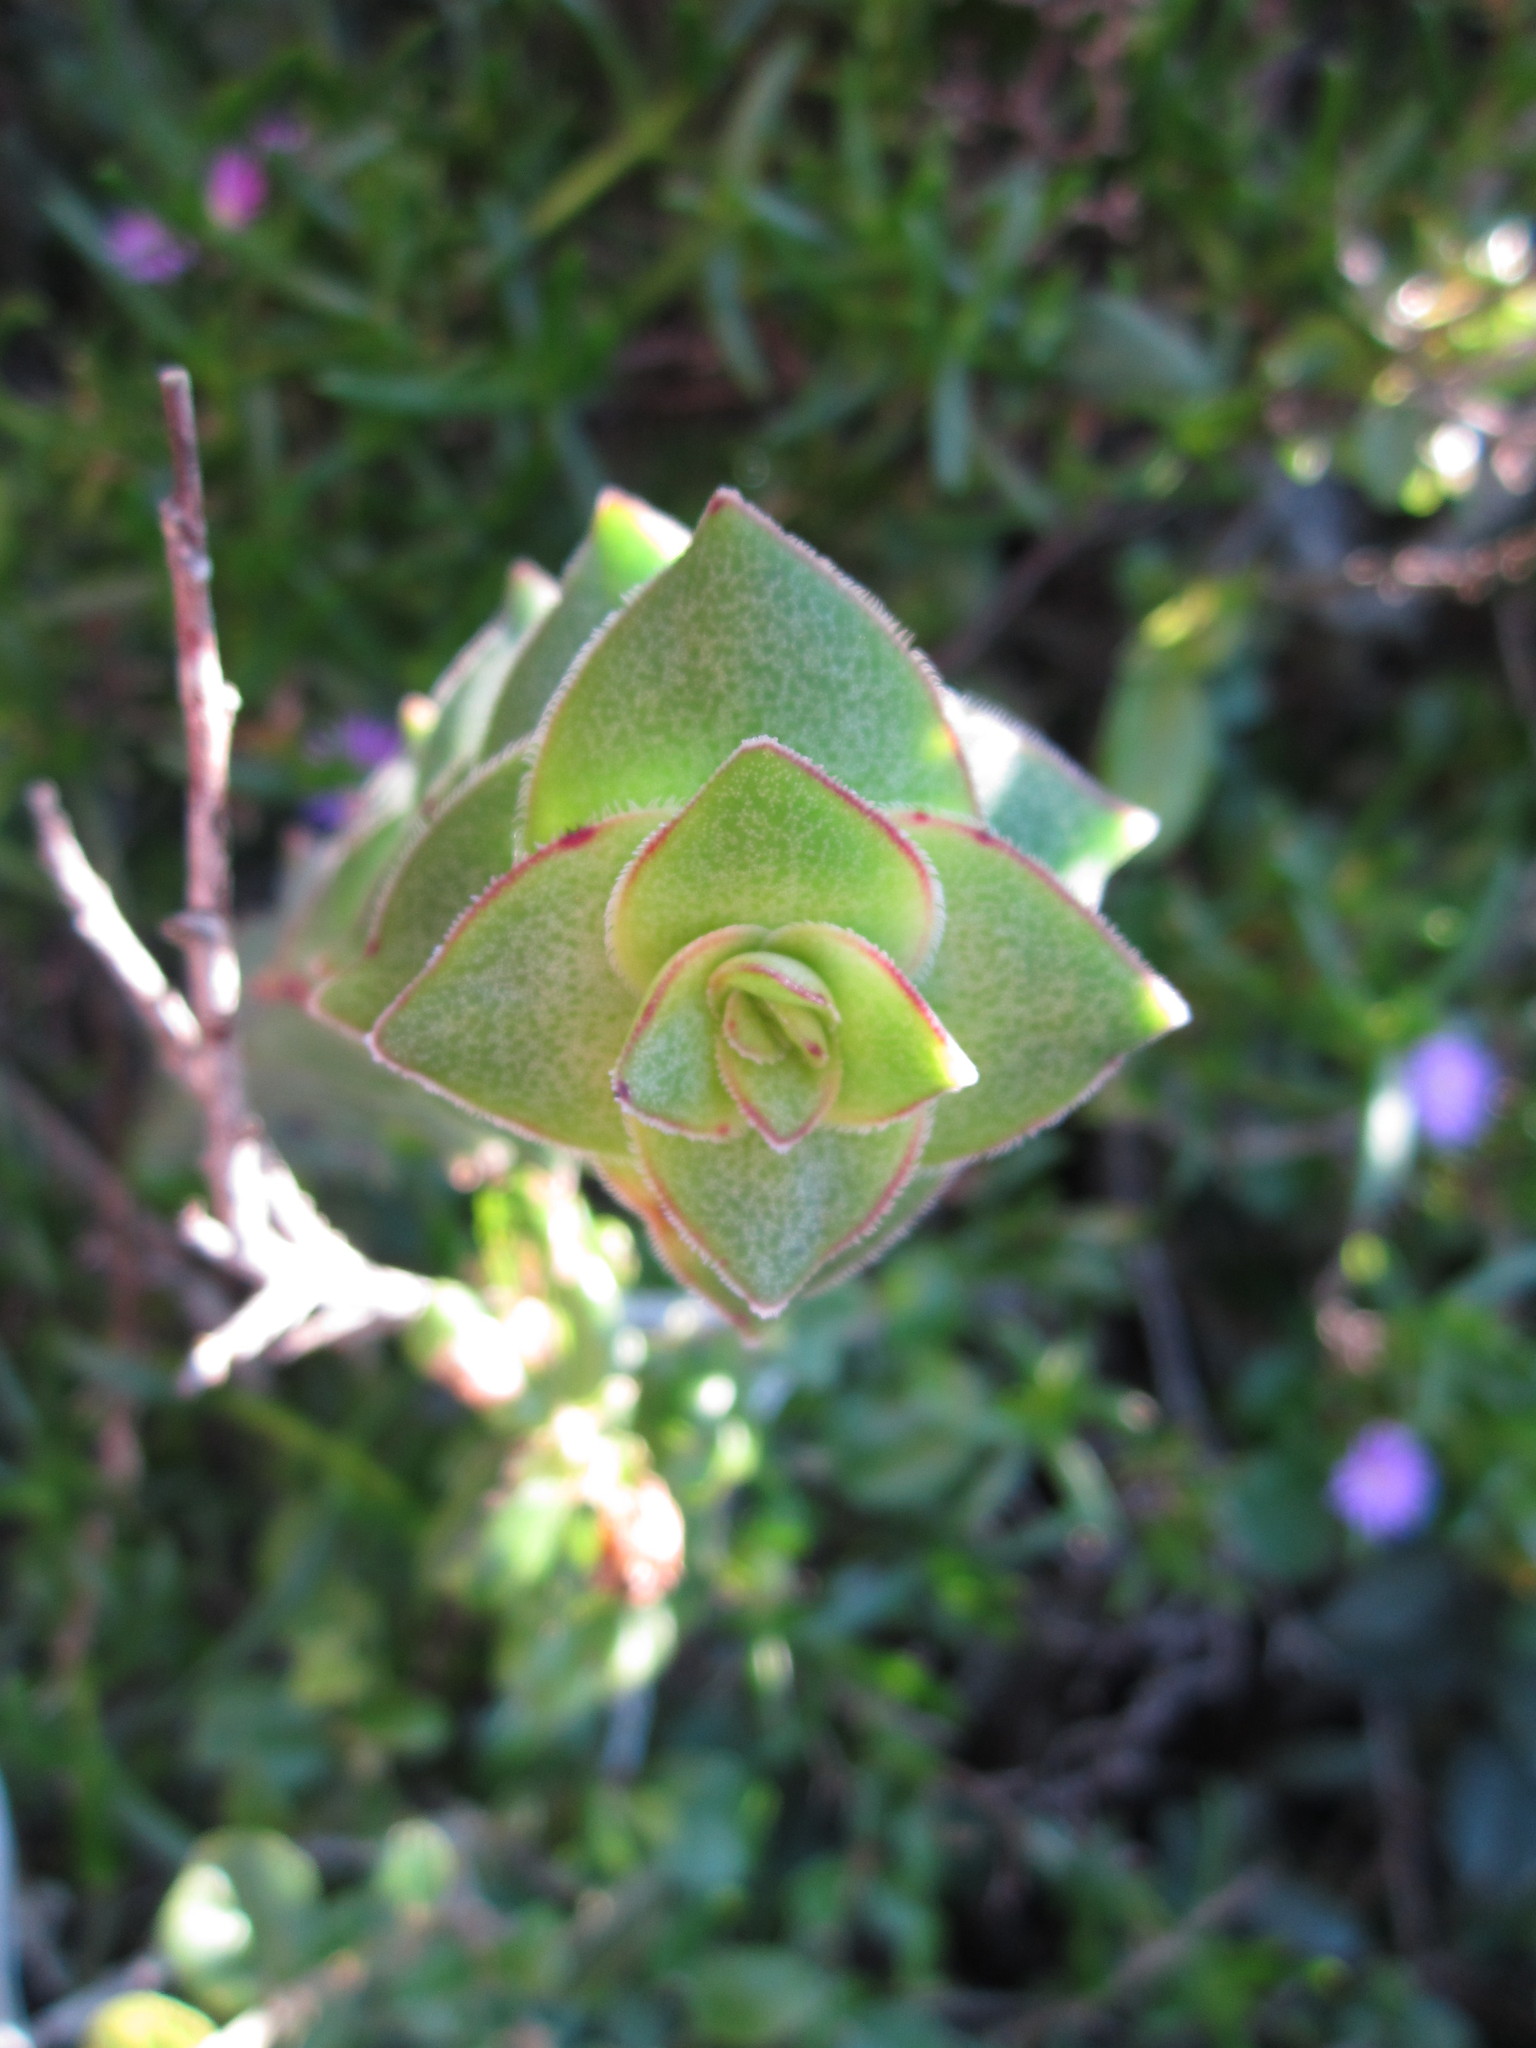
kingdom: Plantae
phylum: Tracheophyta
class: Magnoliopsida
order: Saxifragales
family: Crassulaceae
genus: Crassula
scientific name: Crassula perforata
